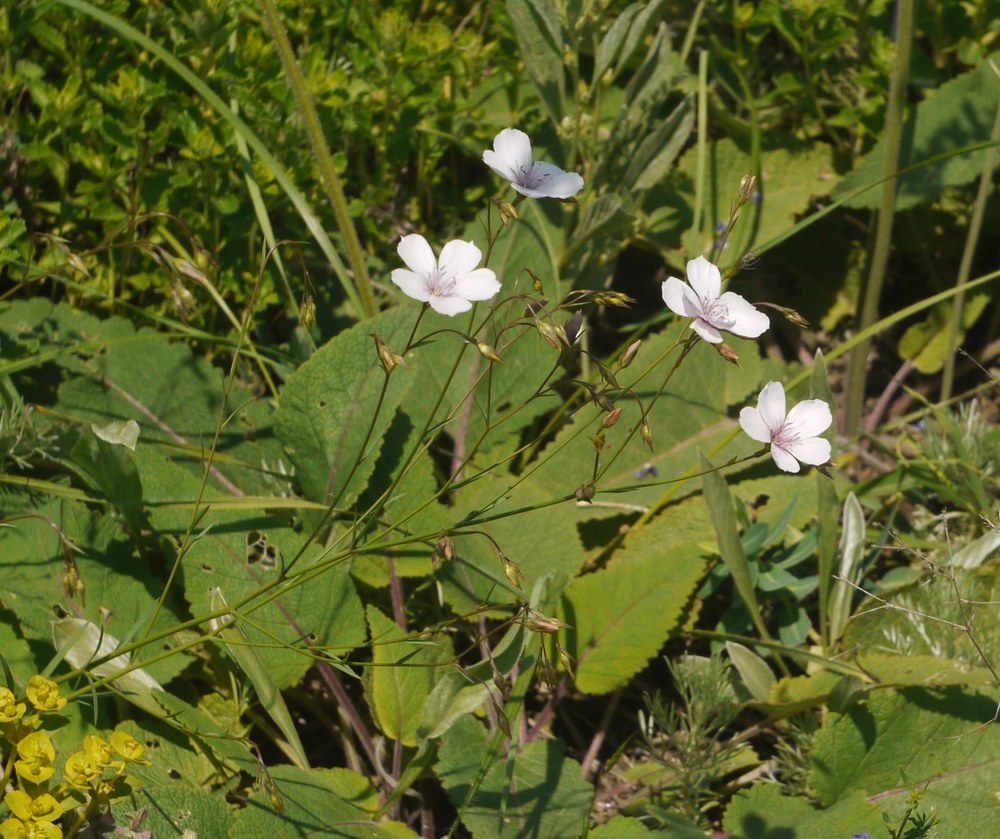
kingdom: Plantae
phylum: Tracheophyta
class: Magnoliopsida
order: Malpighiales
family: Linaceae
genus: Linum
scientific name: Linum tenuifolium
